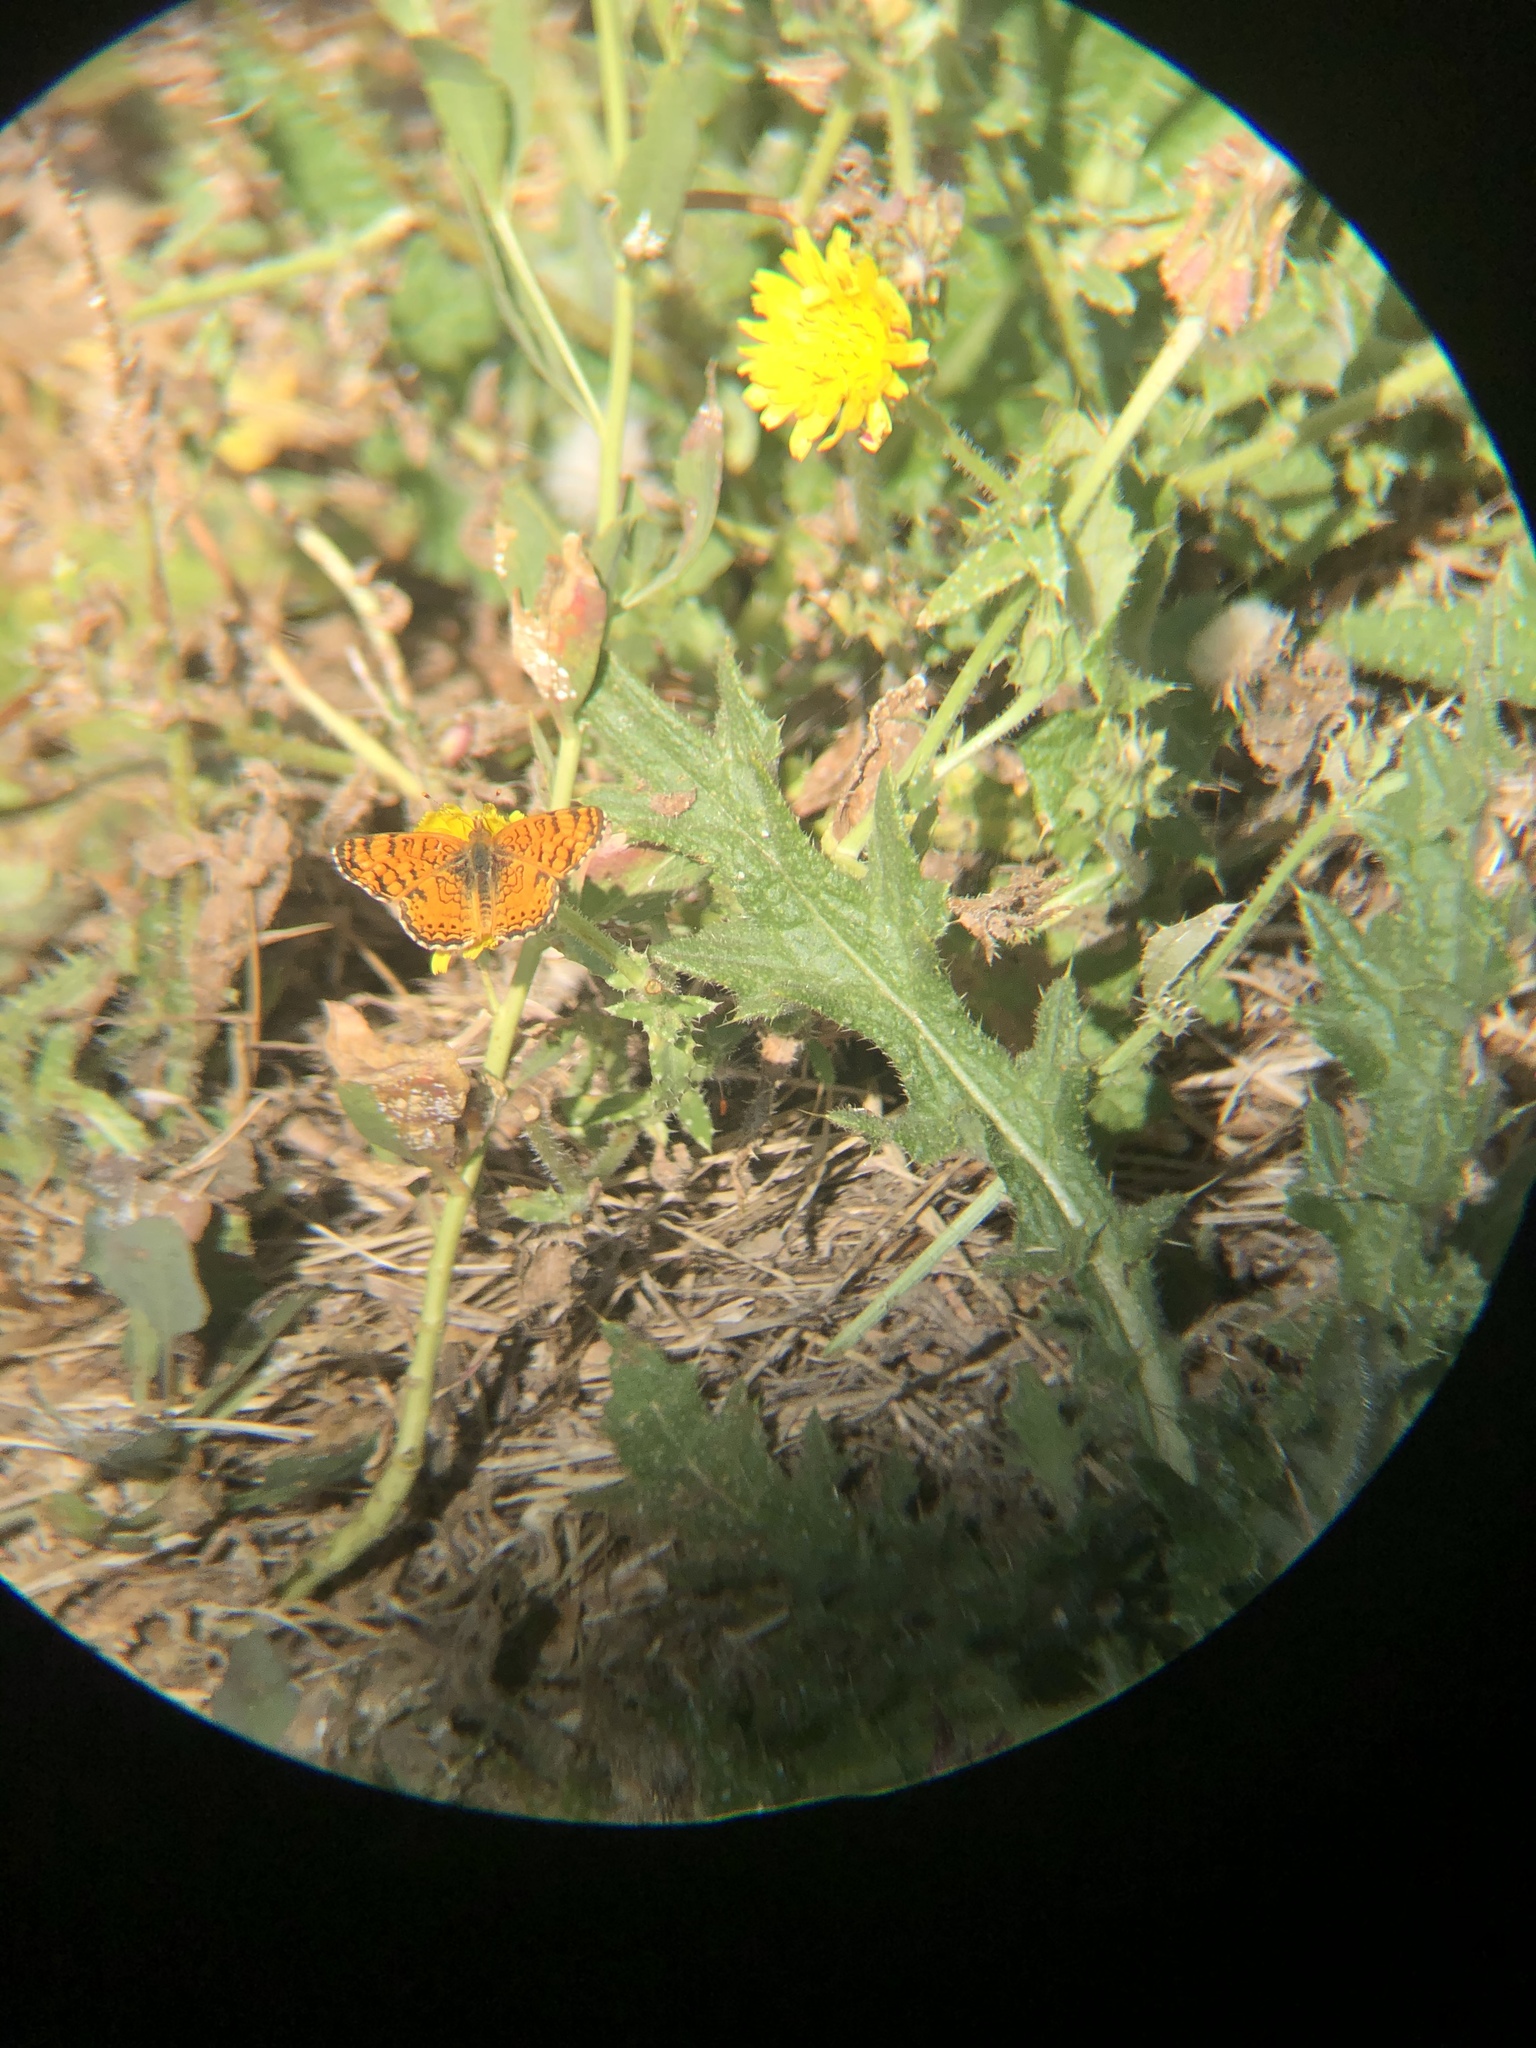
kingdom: Animalia
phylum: Arthropoda
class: Insecta
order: Lepidoptera
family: Nymphalidae
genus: Eresia
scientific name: Eresia aveyrona
